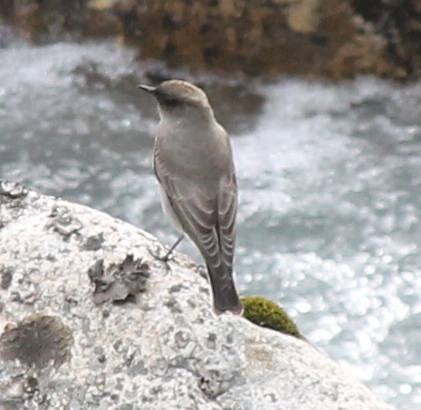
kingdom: Animalia
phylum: Chordata
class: Aves
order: Passeriformes
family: Tyrannidae
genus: Muscisaxicola
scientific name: Muscisaxicola maclovianus
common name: Dark-faced ground tyrant
